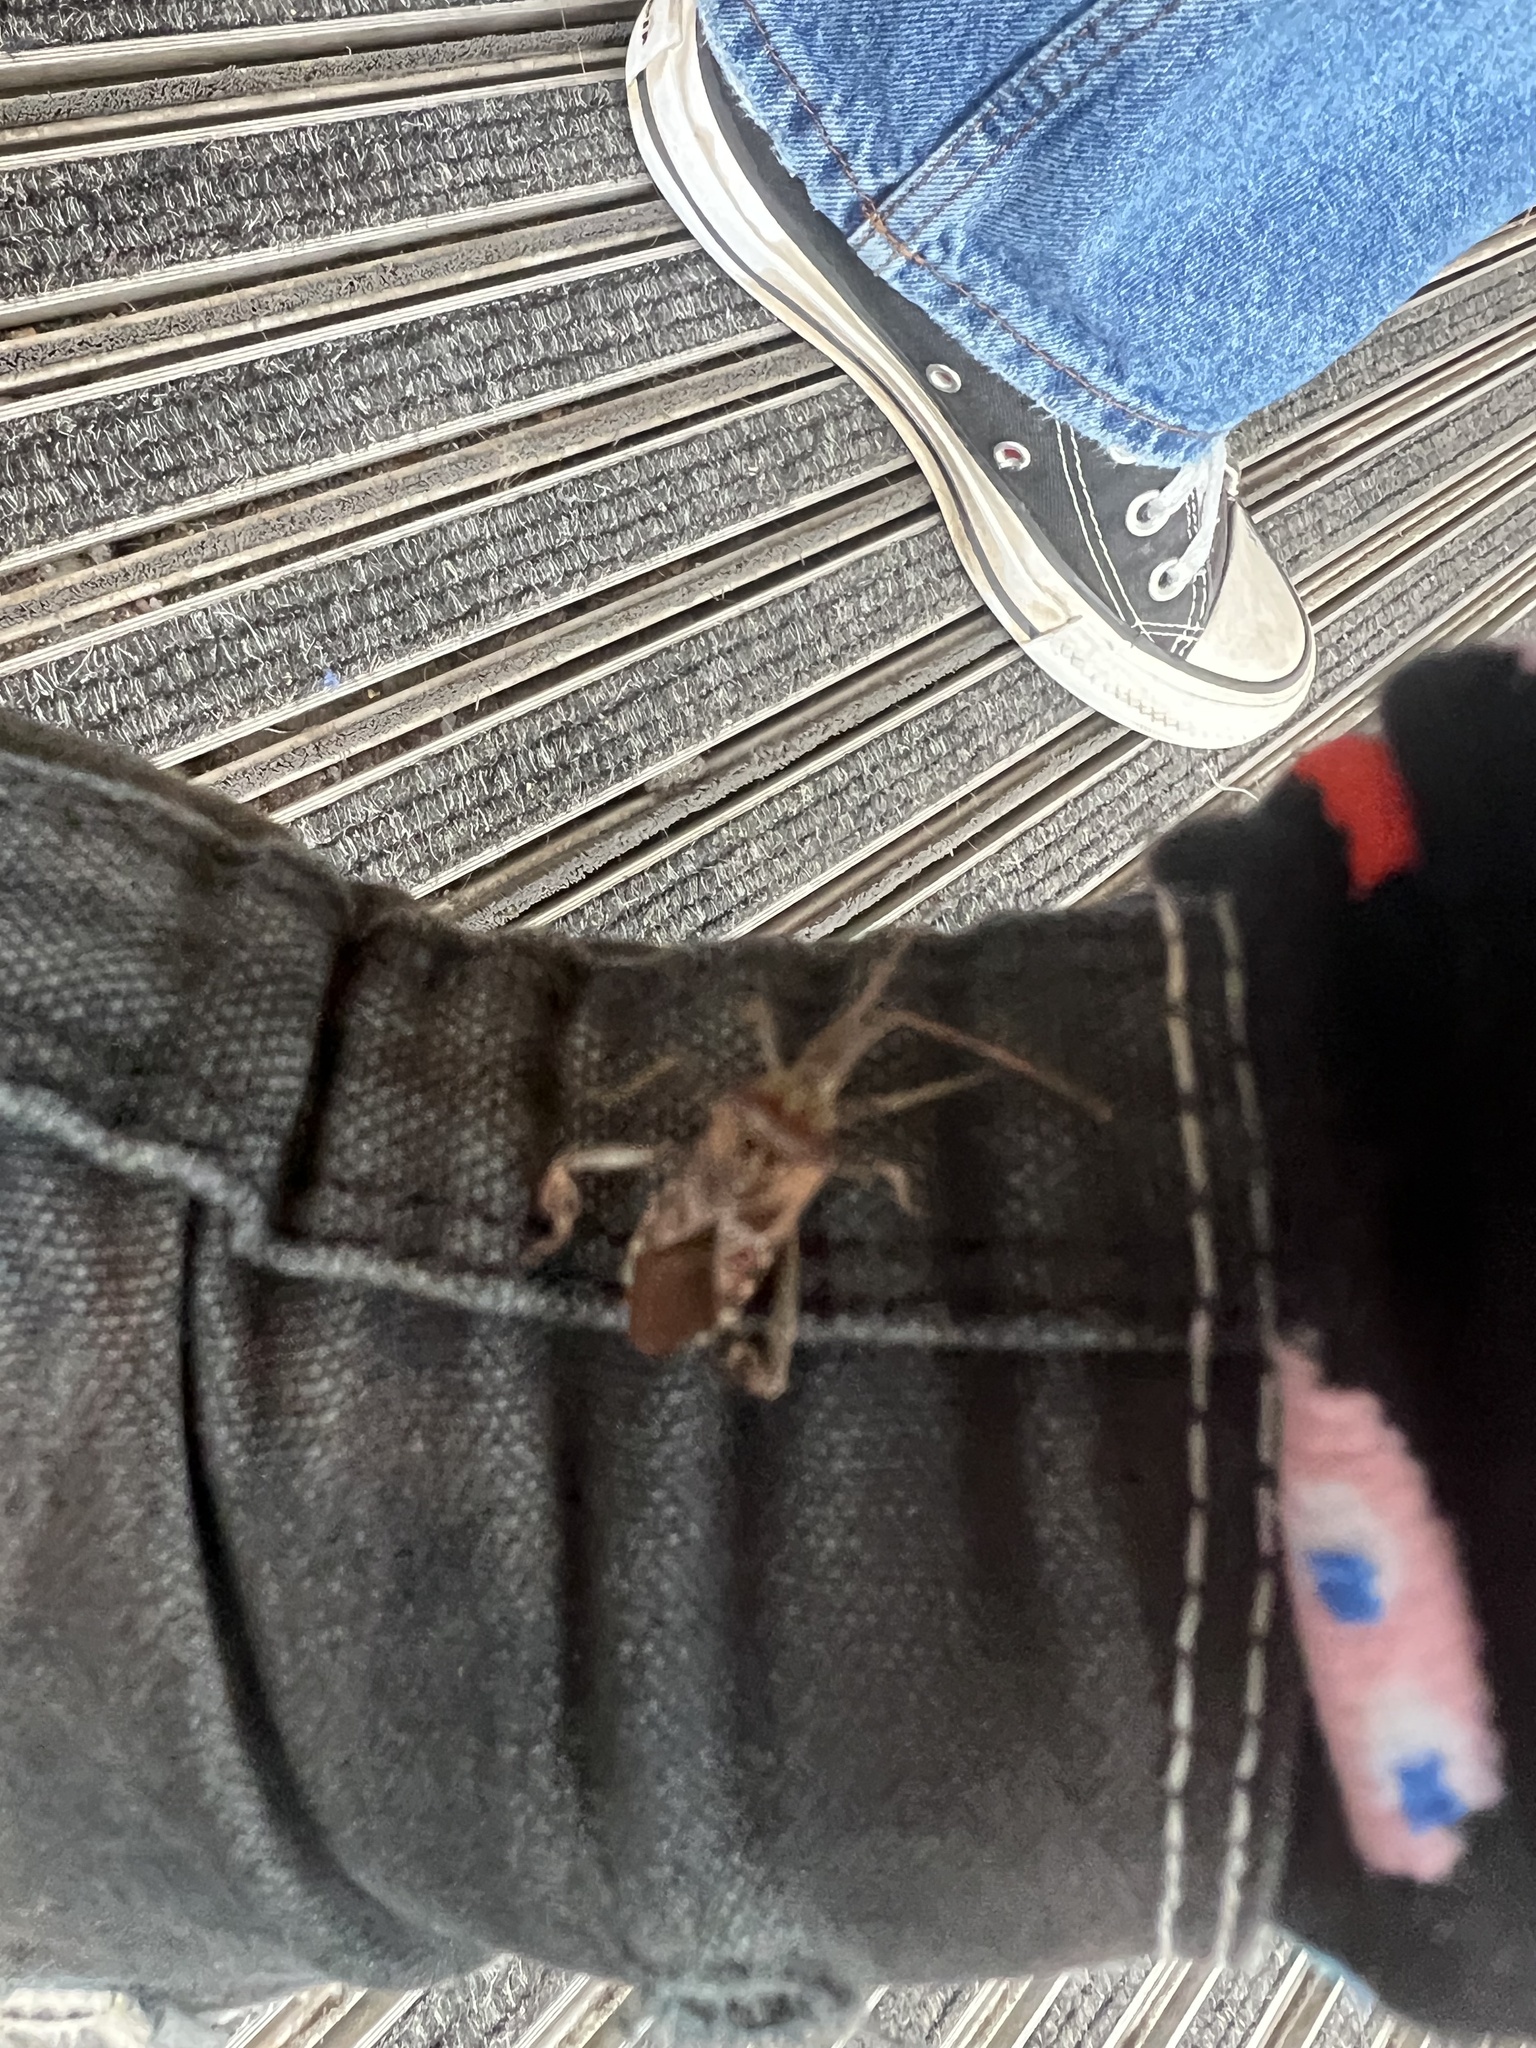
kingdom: Animalia
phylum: Arthropoda
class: Insecta
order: Hemiptera
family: Coreidae
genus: Leptoglossus
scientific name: Leptoglossus occidentalis
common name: Western conifer-seed bug
